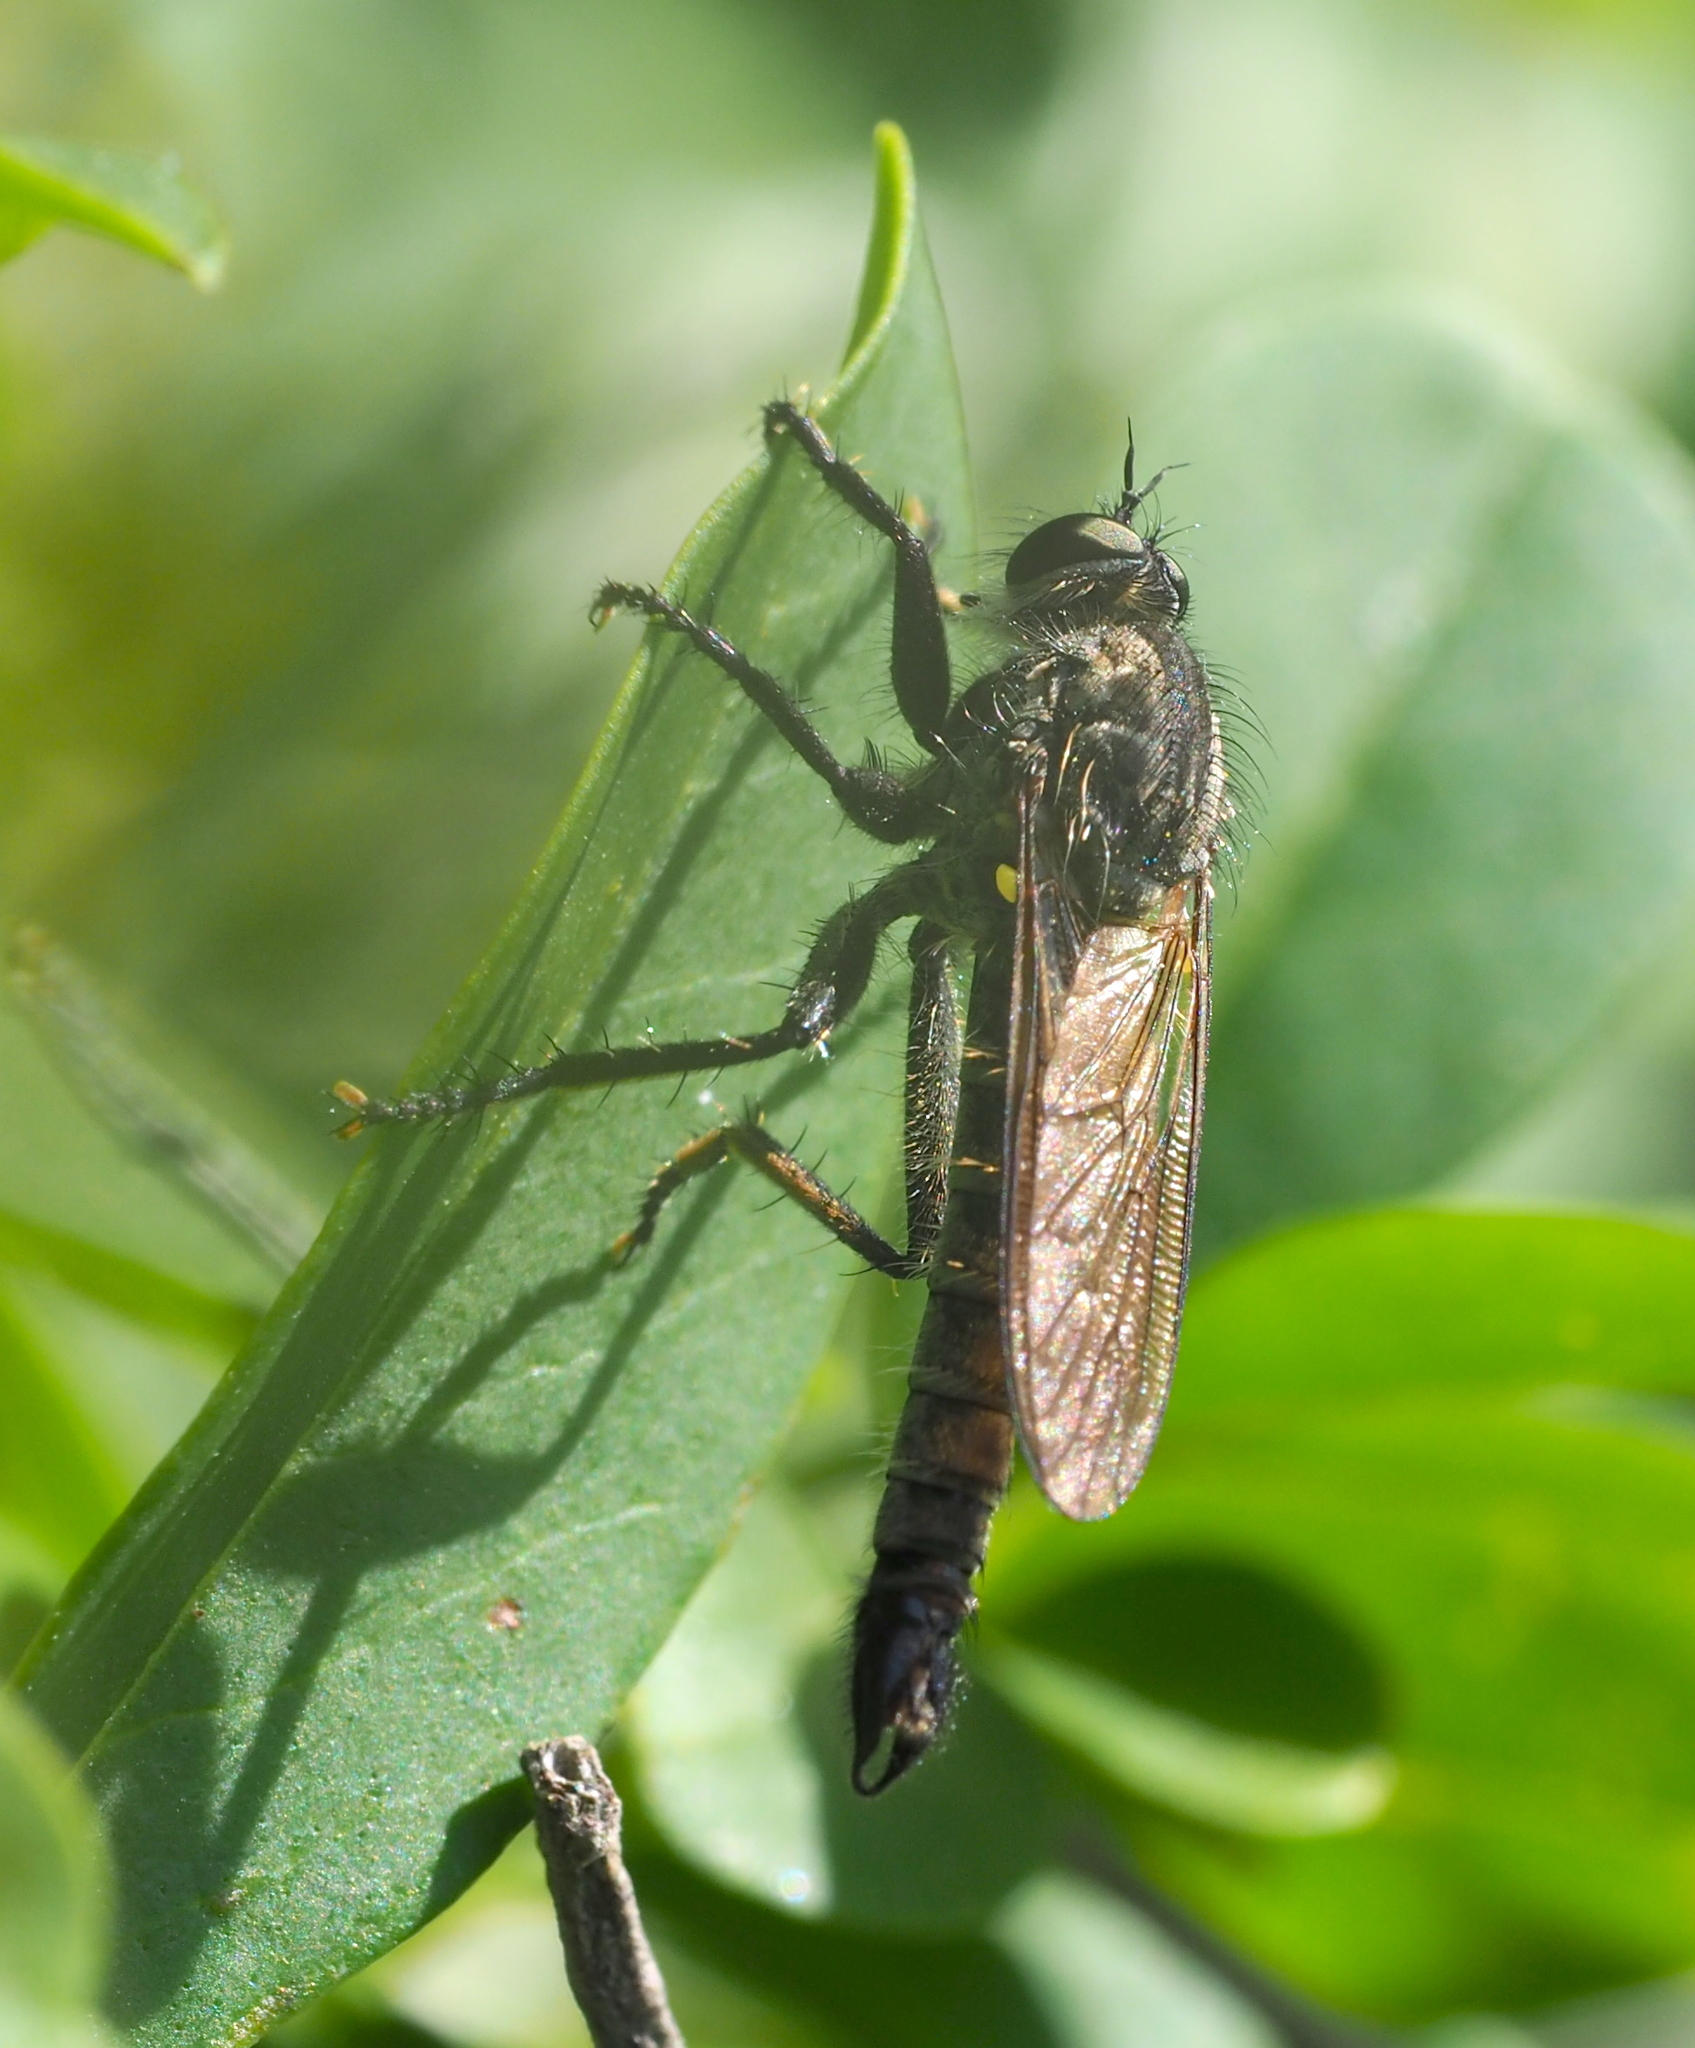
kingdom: Animalia
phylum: Arthropoda
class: Insecta
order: Diptera
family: Asilidae
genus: Didysmachus
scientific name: Didysmachus picipes
